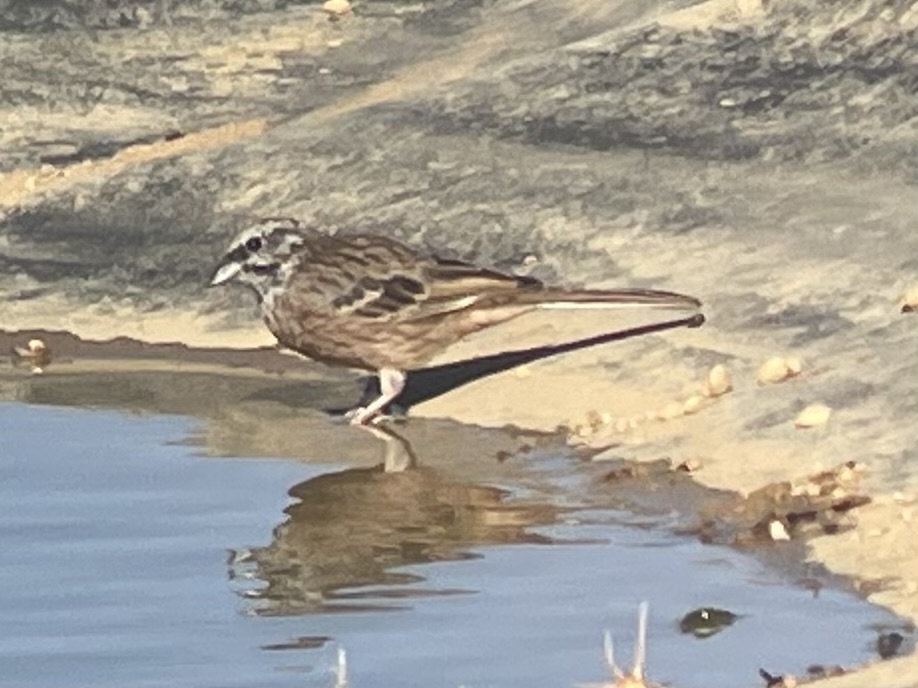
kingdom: Animalia
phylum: Chordata
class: Aves
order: Passeriformes
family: Emberizidae
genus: Emberiza
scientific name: Emberiza cia
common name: Rock bunting
